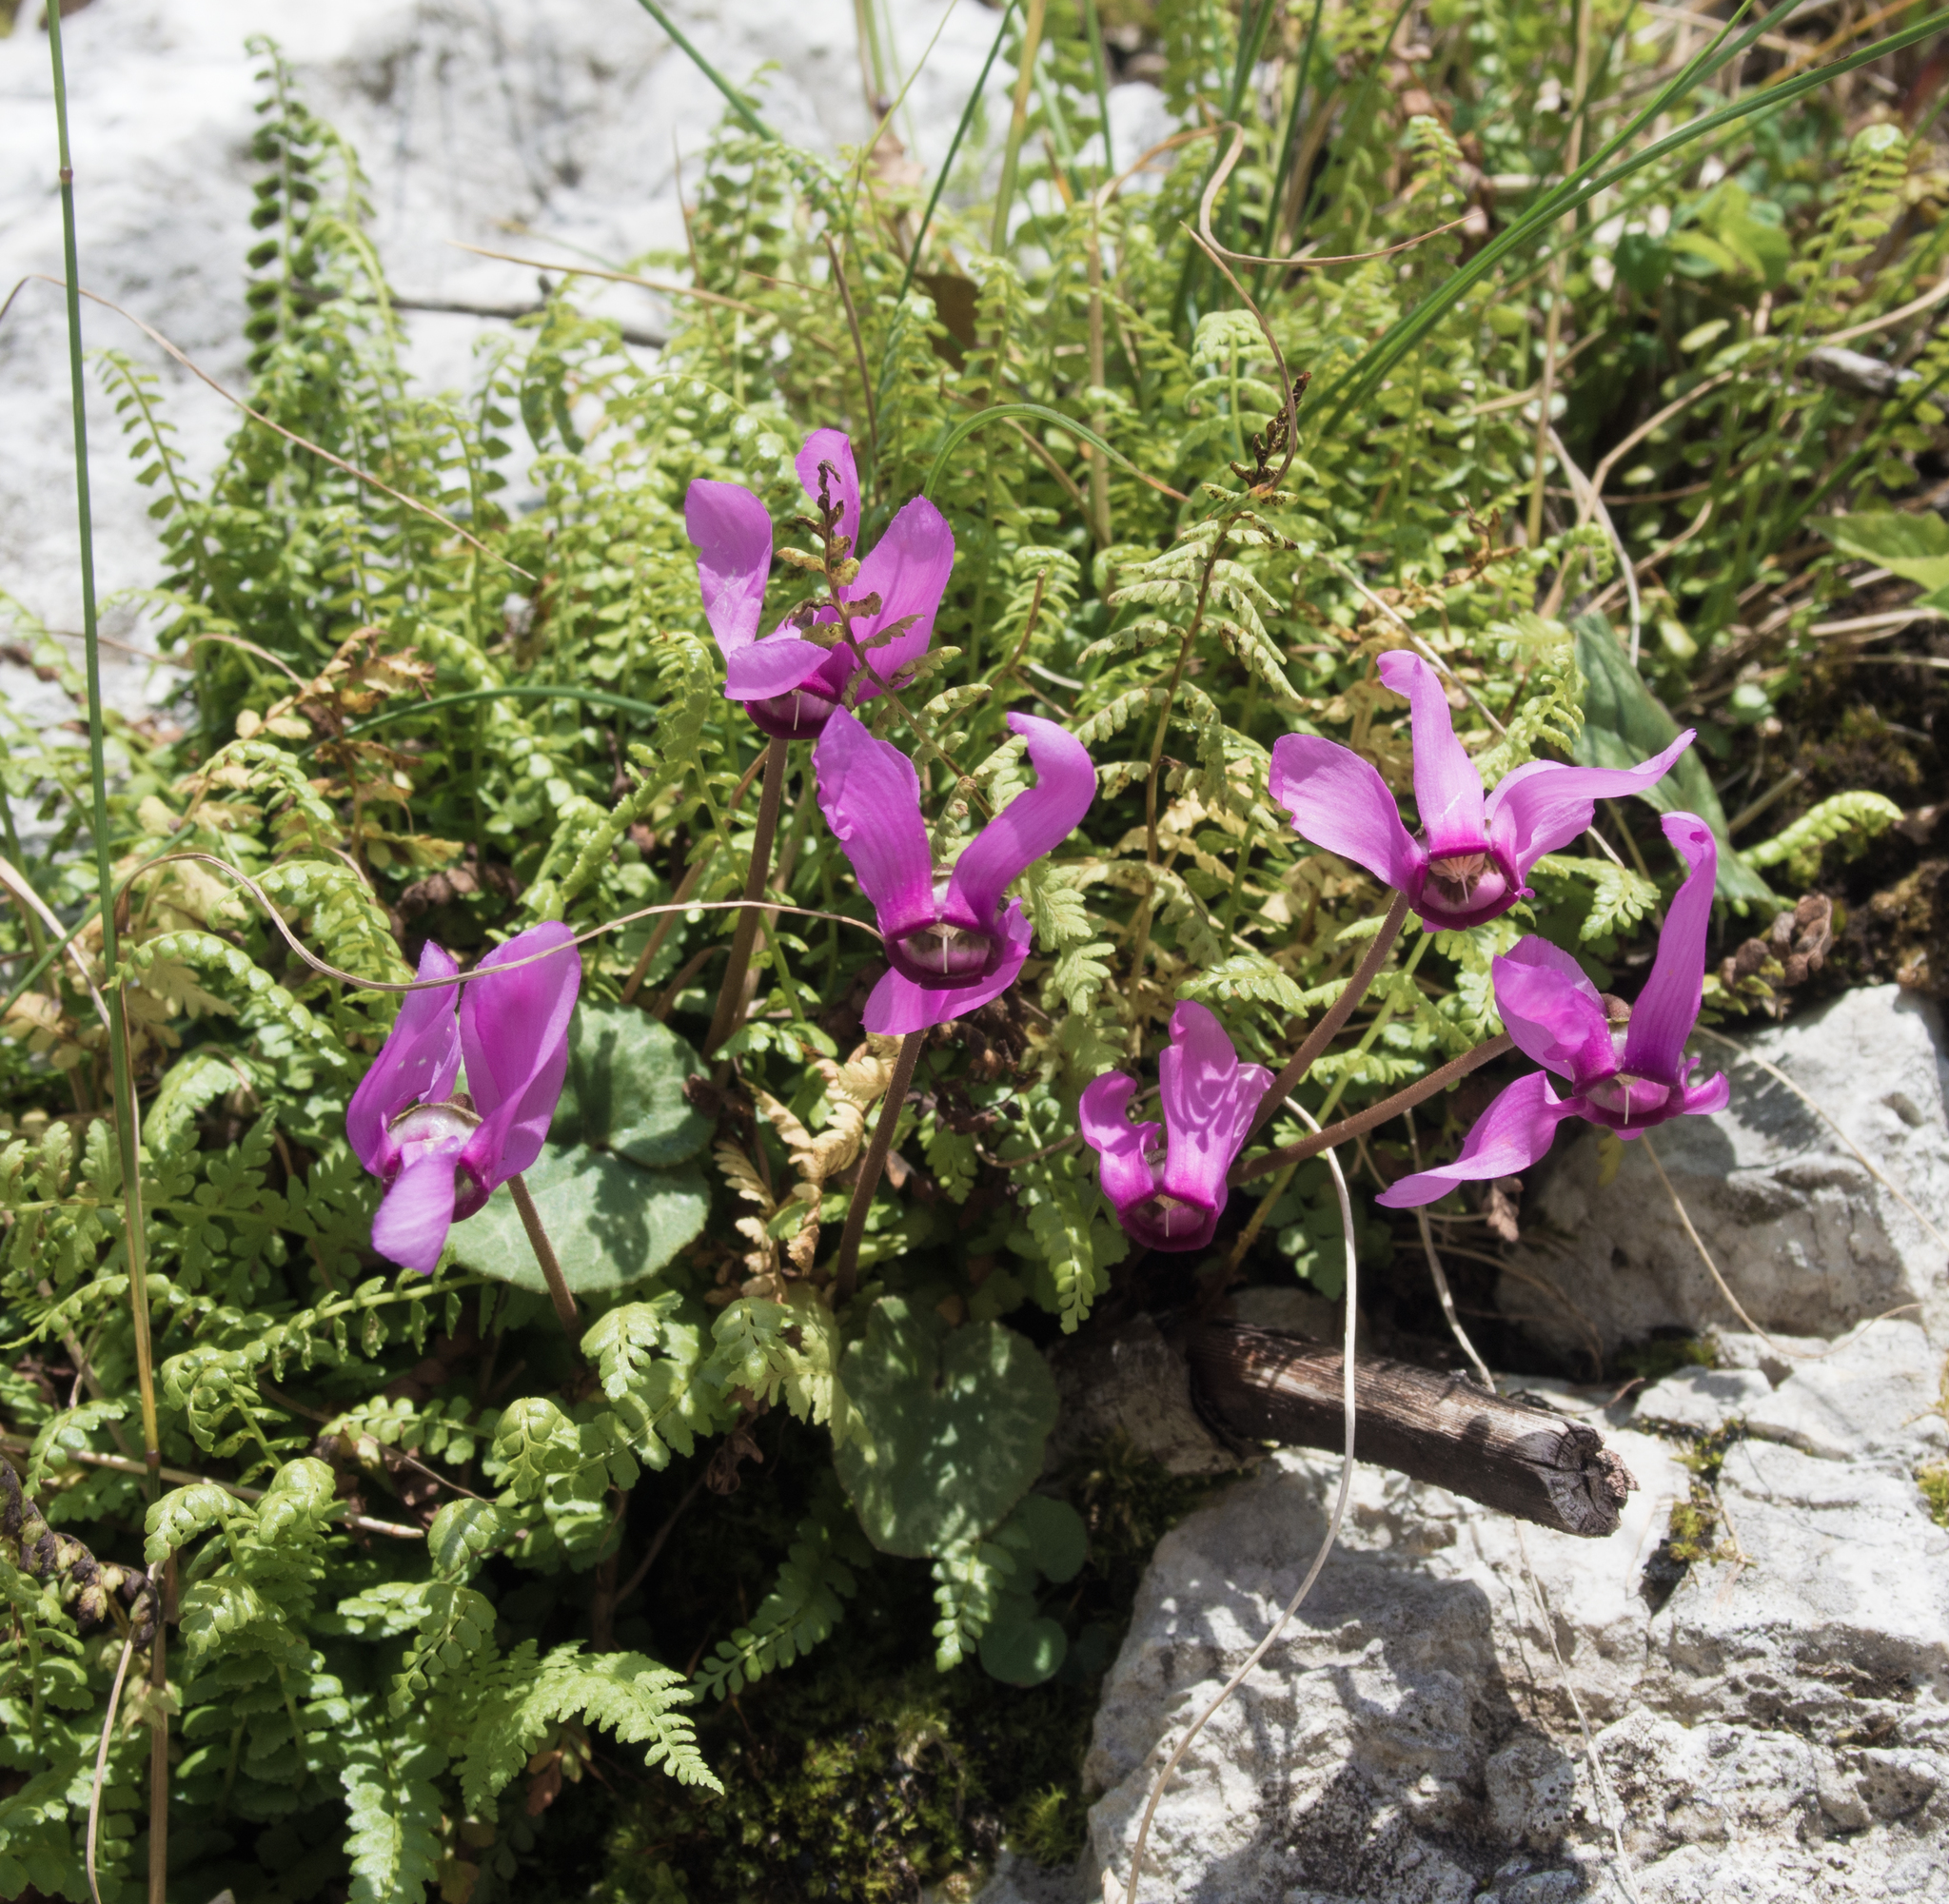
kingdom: Plantae
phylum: Tracheophyta
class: Magnoliopsida
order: Ericales
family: Primulaceae
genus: Cyclamen
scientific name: Cyclamen purpurascens
